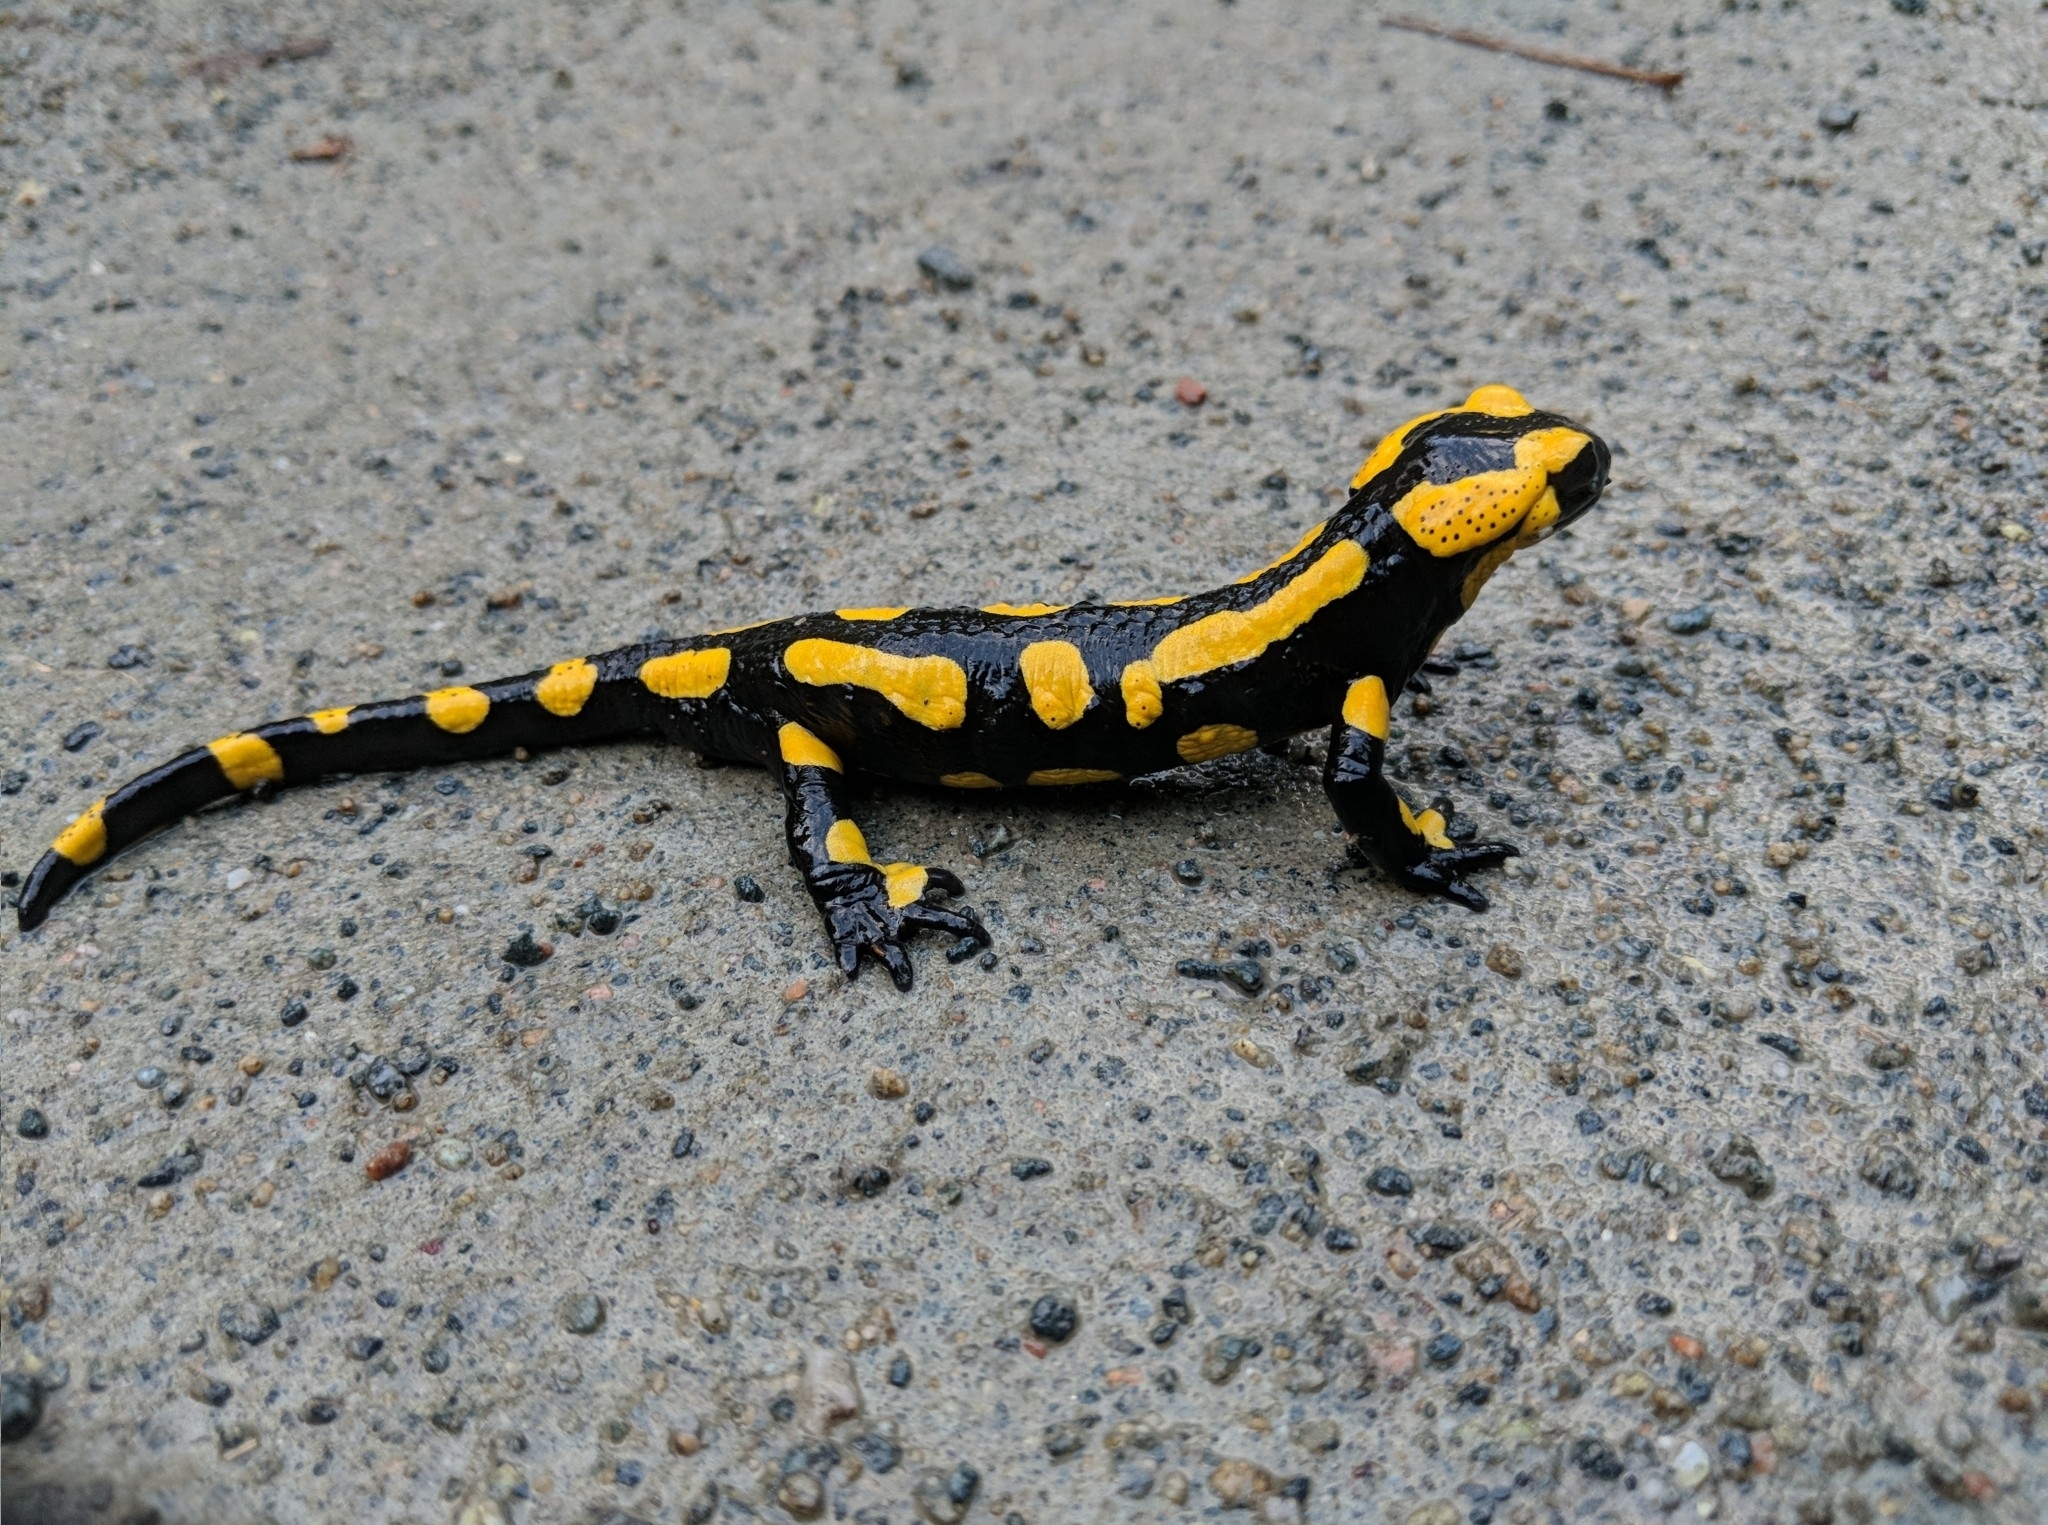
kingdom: Animalia
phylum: Chordata
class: Amphibia
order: Caudata
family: Salamandridae
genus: Salamandra
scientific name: Salamandra salamandra
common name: Fire salamander
